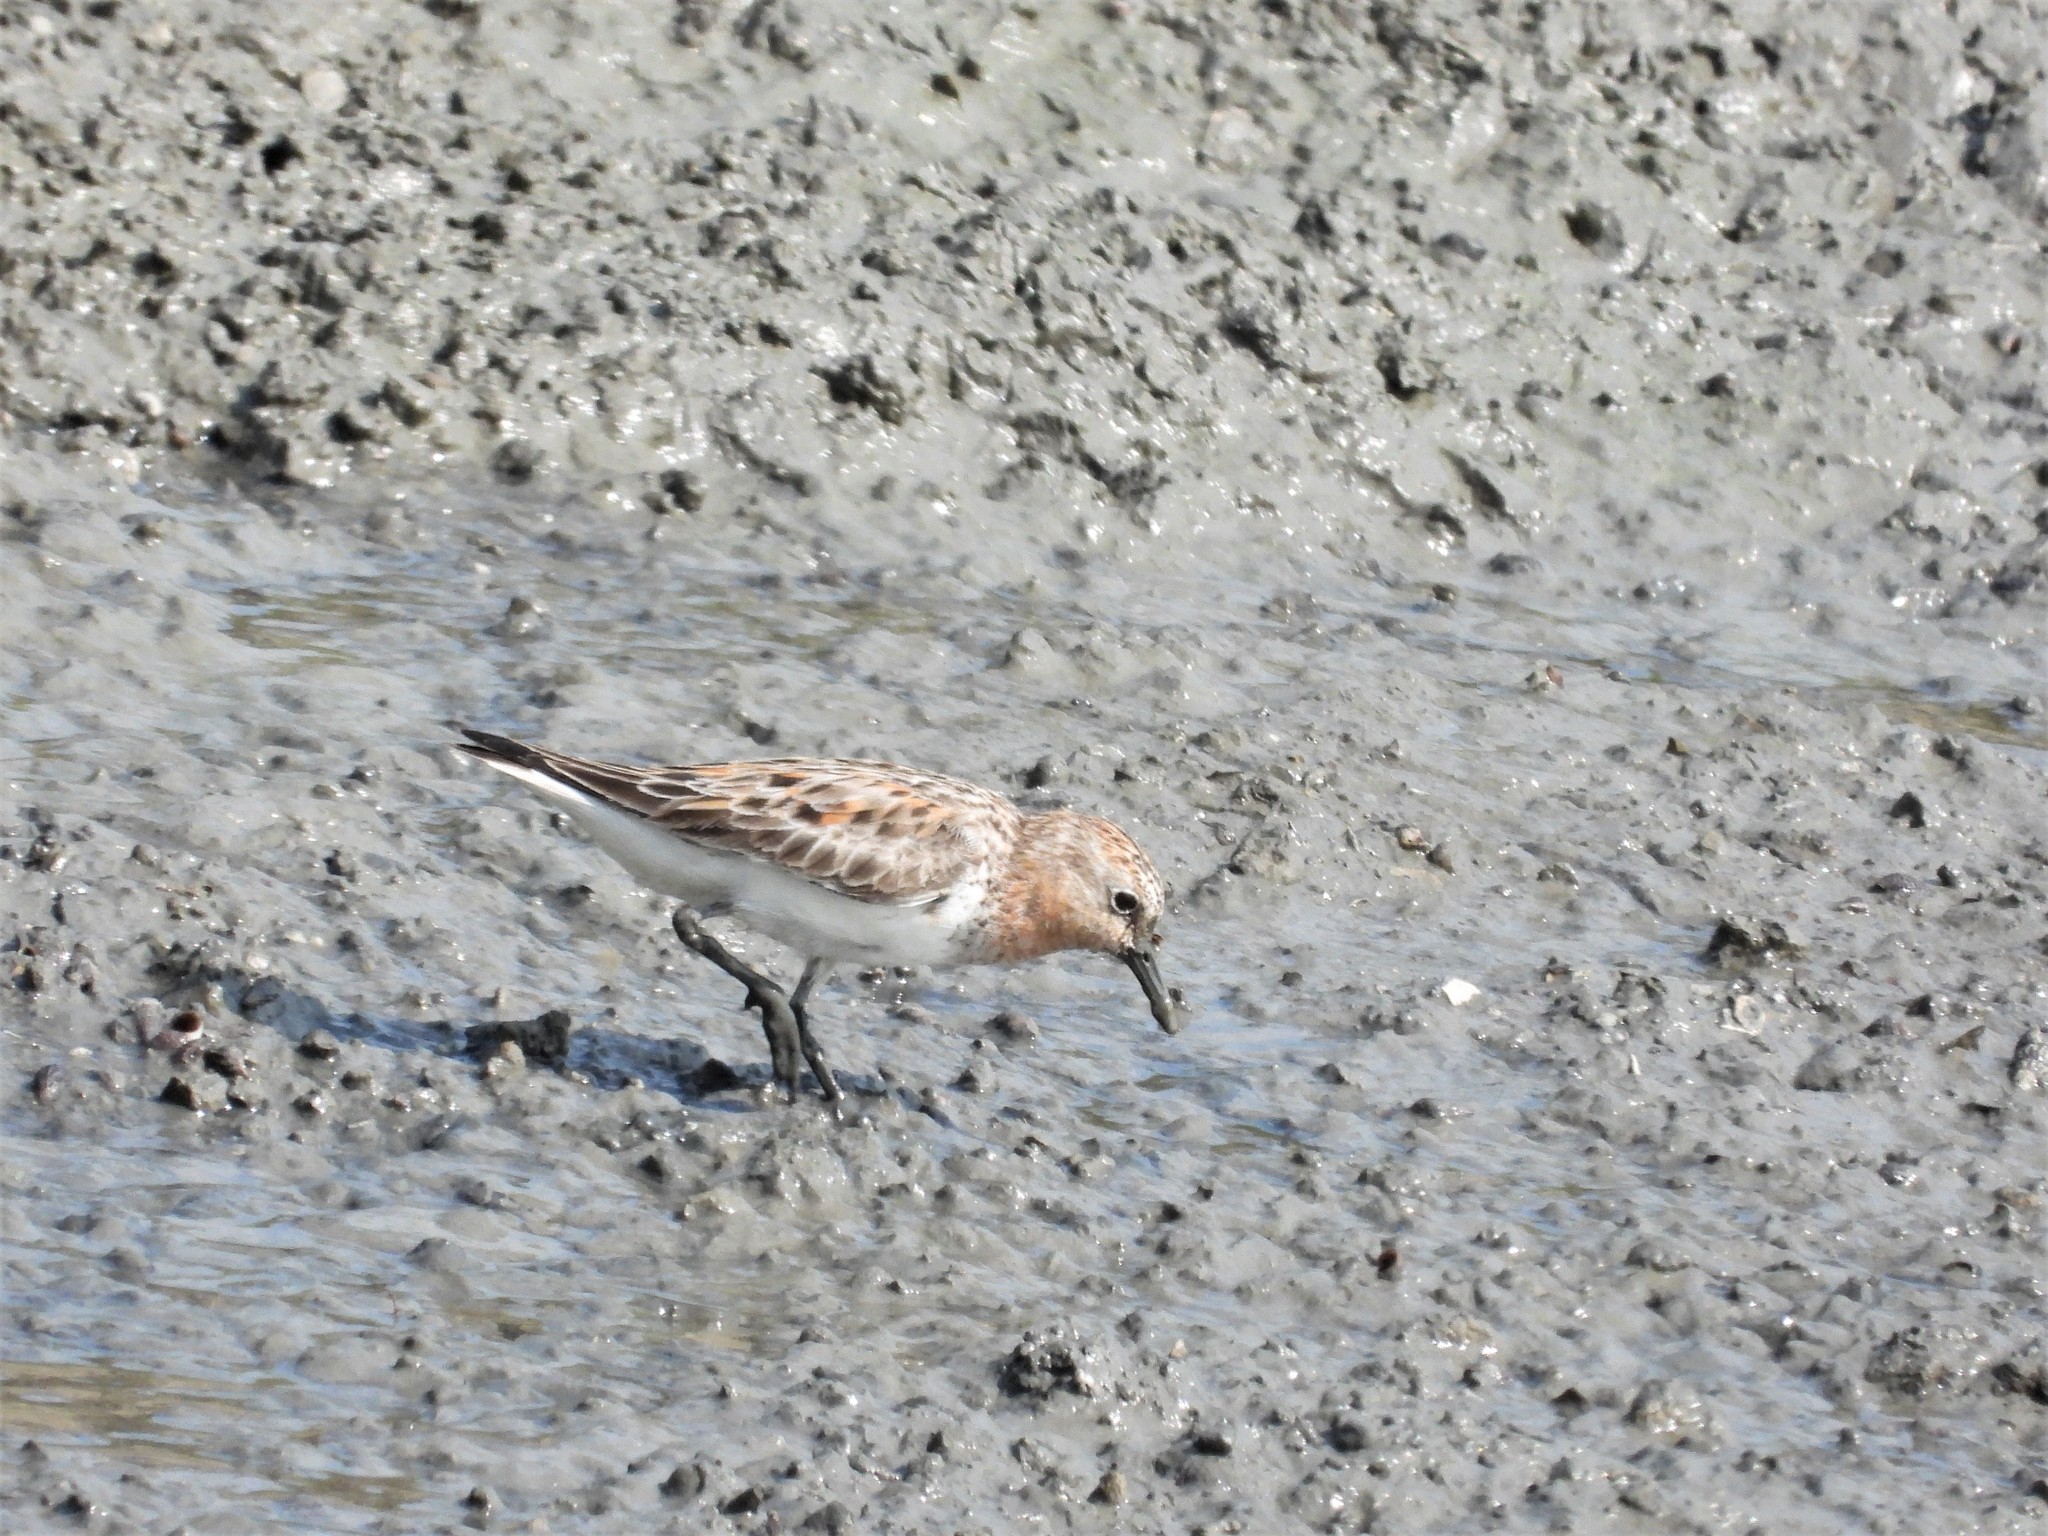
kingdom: Animalia
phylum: Chordata
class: Aves
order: Charadriiformes
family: Scolopacidae
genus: Calidris
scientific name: Calidris ruficollis
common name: Red-necked stint
